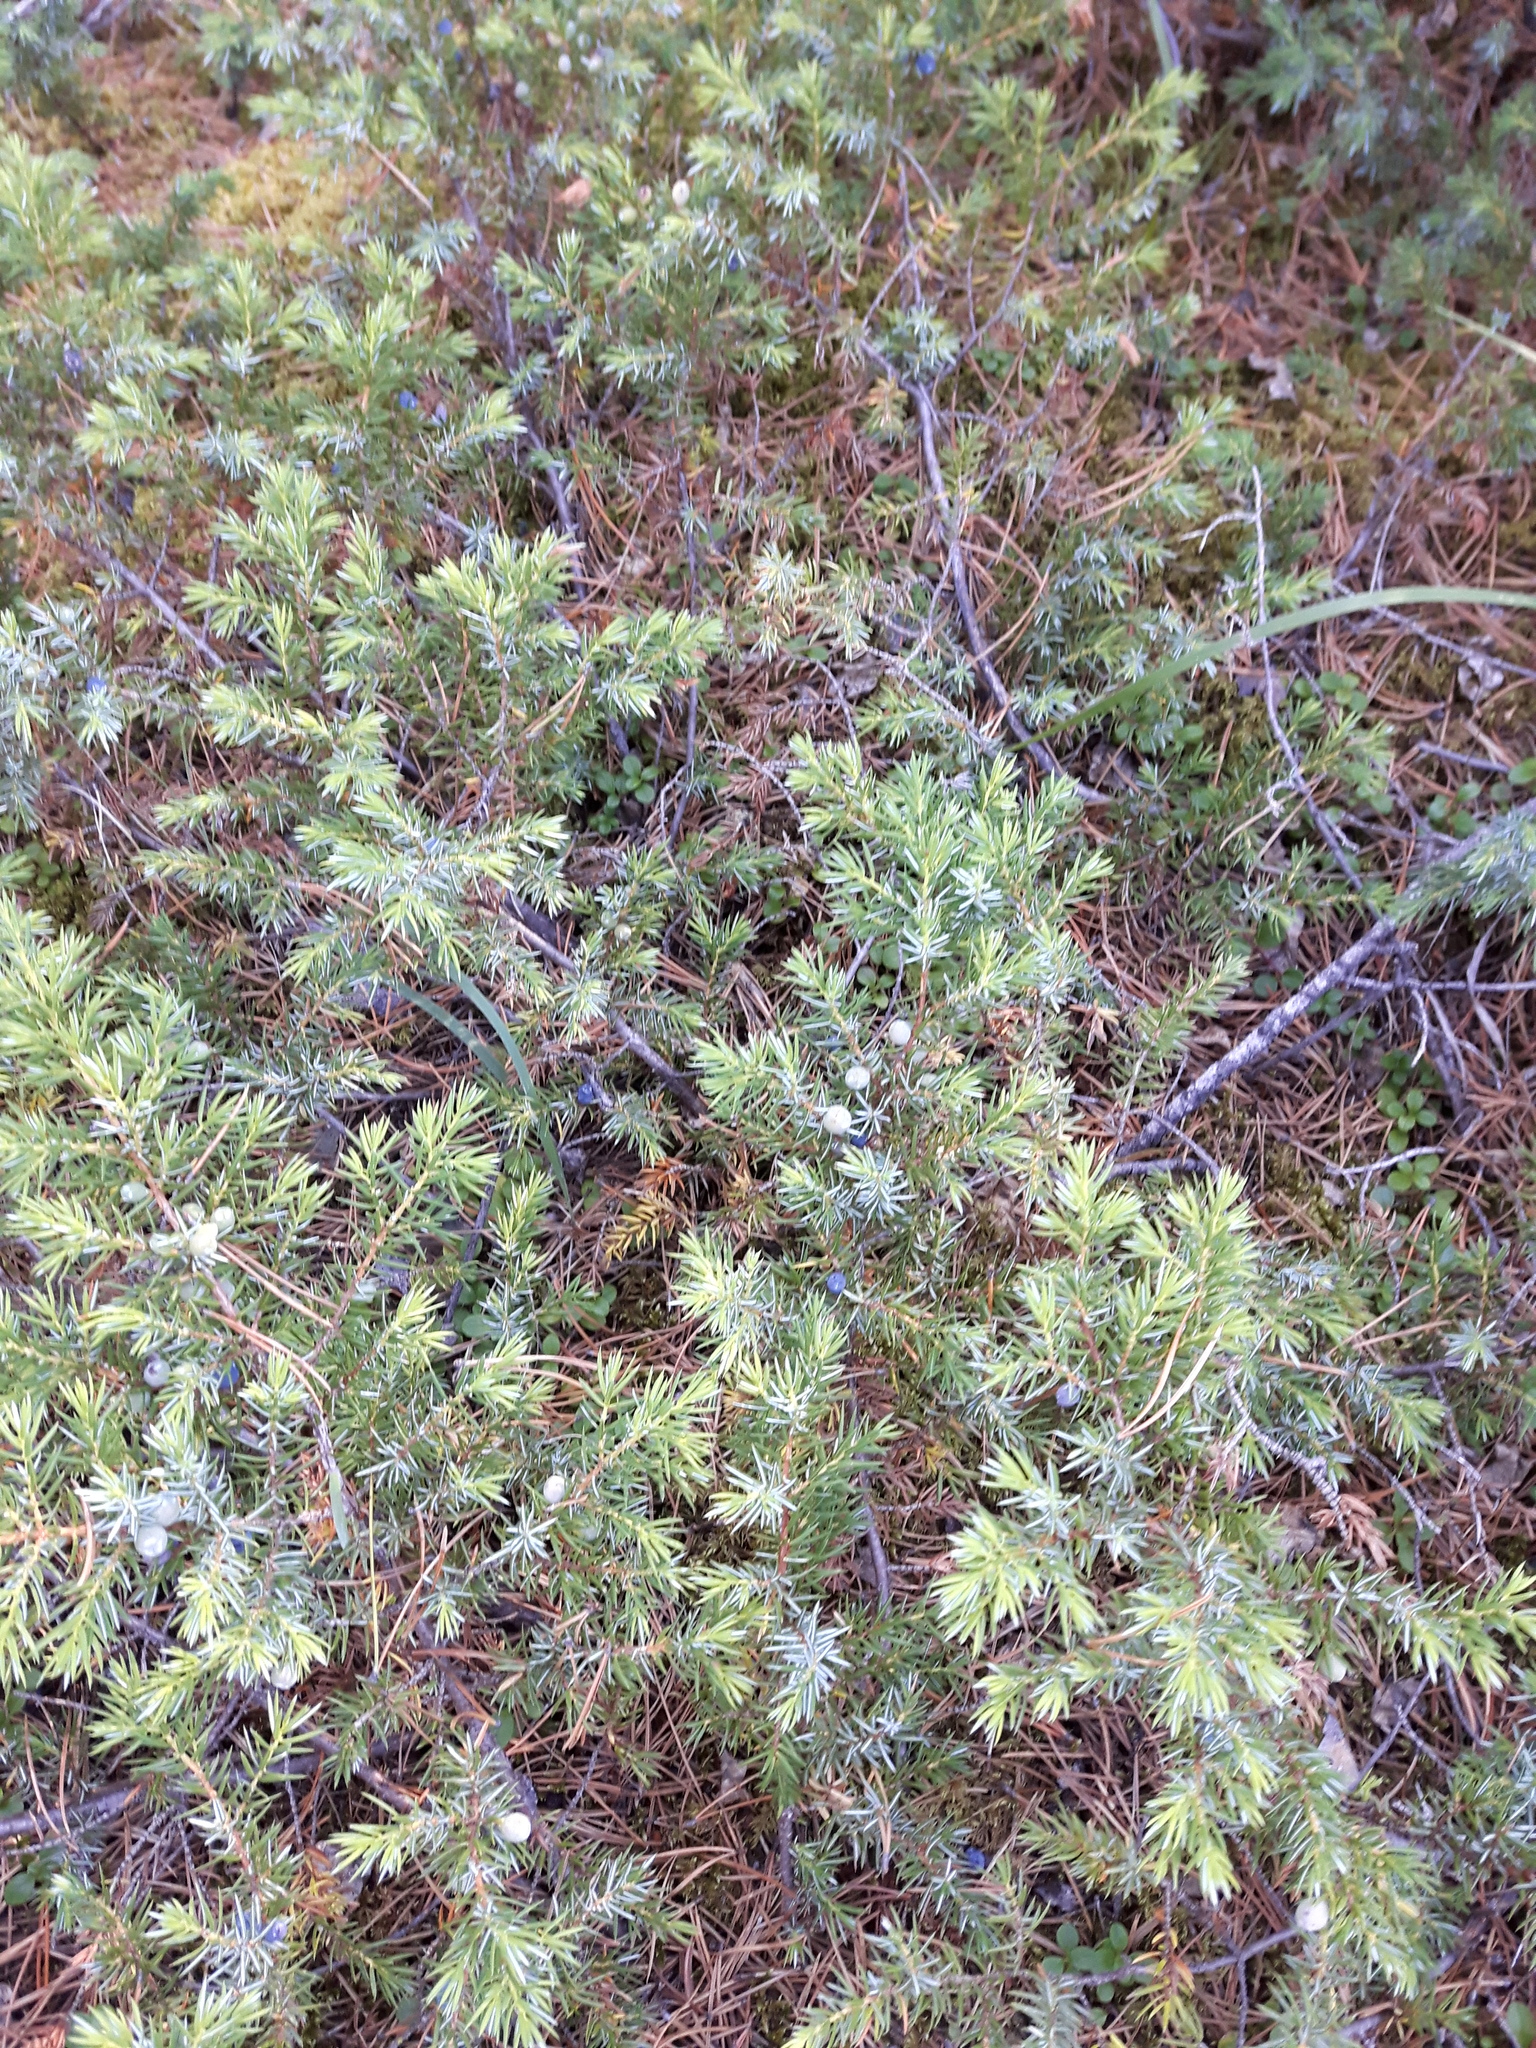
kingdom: Plantae
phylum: Tracheophyta
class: Pinopsida
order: Pinales
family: Cupressaceae
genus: Juniperus
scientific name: Juniperus communis
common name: Common juniper
